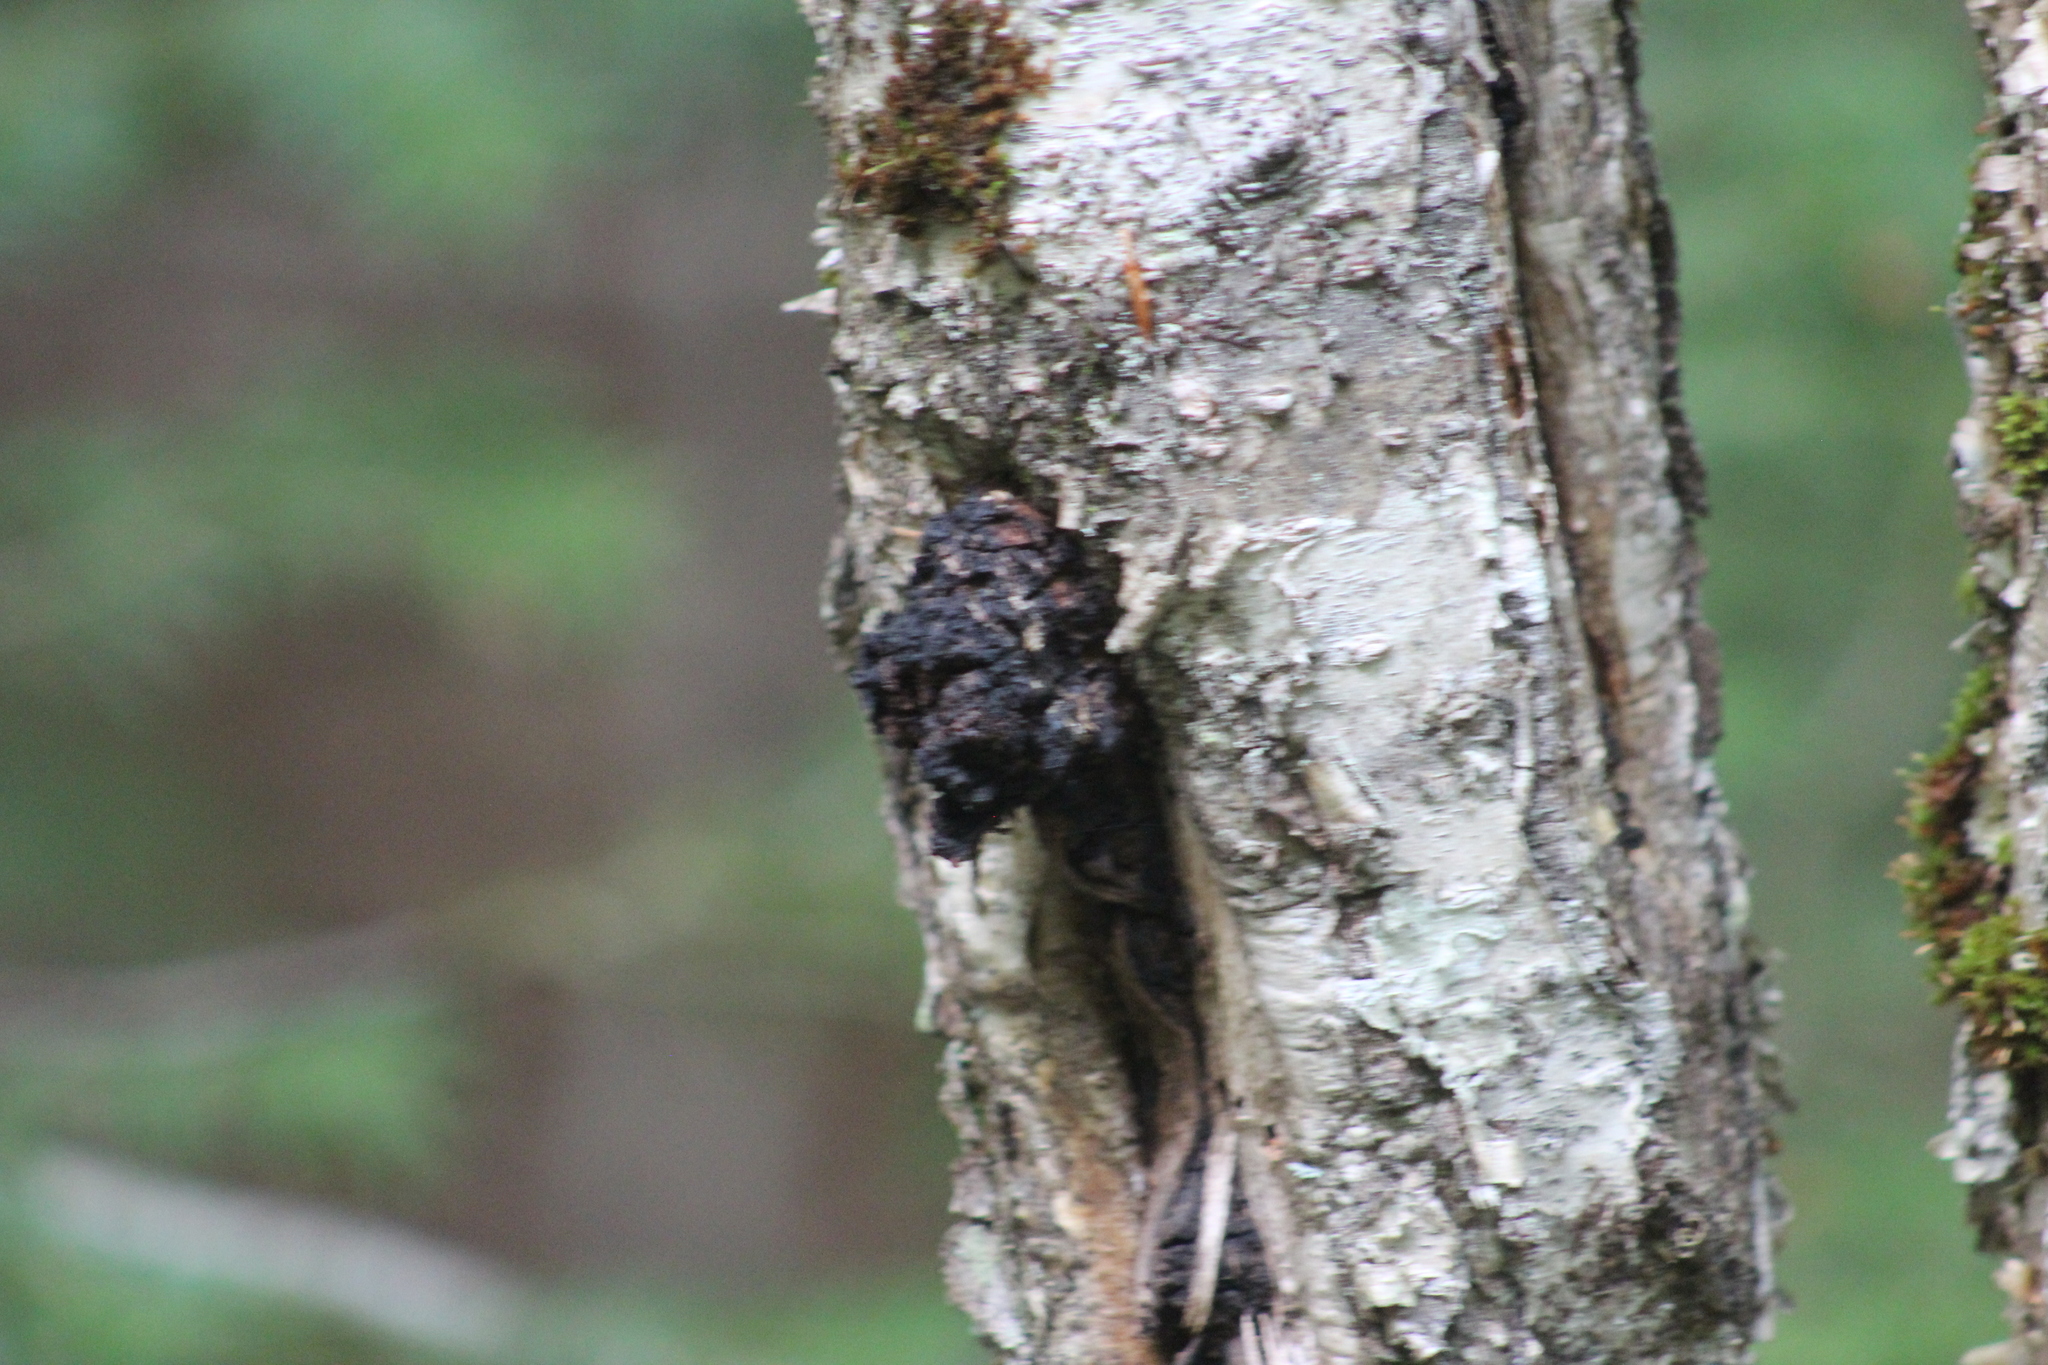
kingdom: Fungi
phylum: Basidiomycota
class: Agaricomycetes
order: Hymenochaetales
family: Hymenochaetaceae
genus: Inonotus
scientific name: Inonotus obliquus
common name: Chaga
